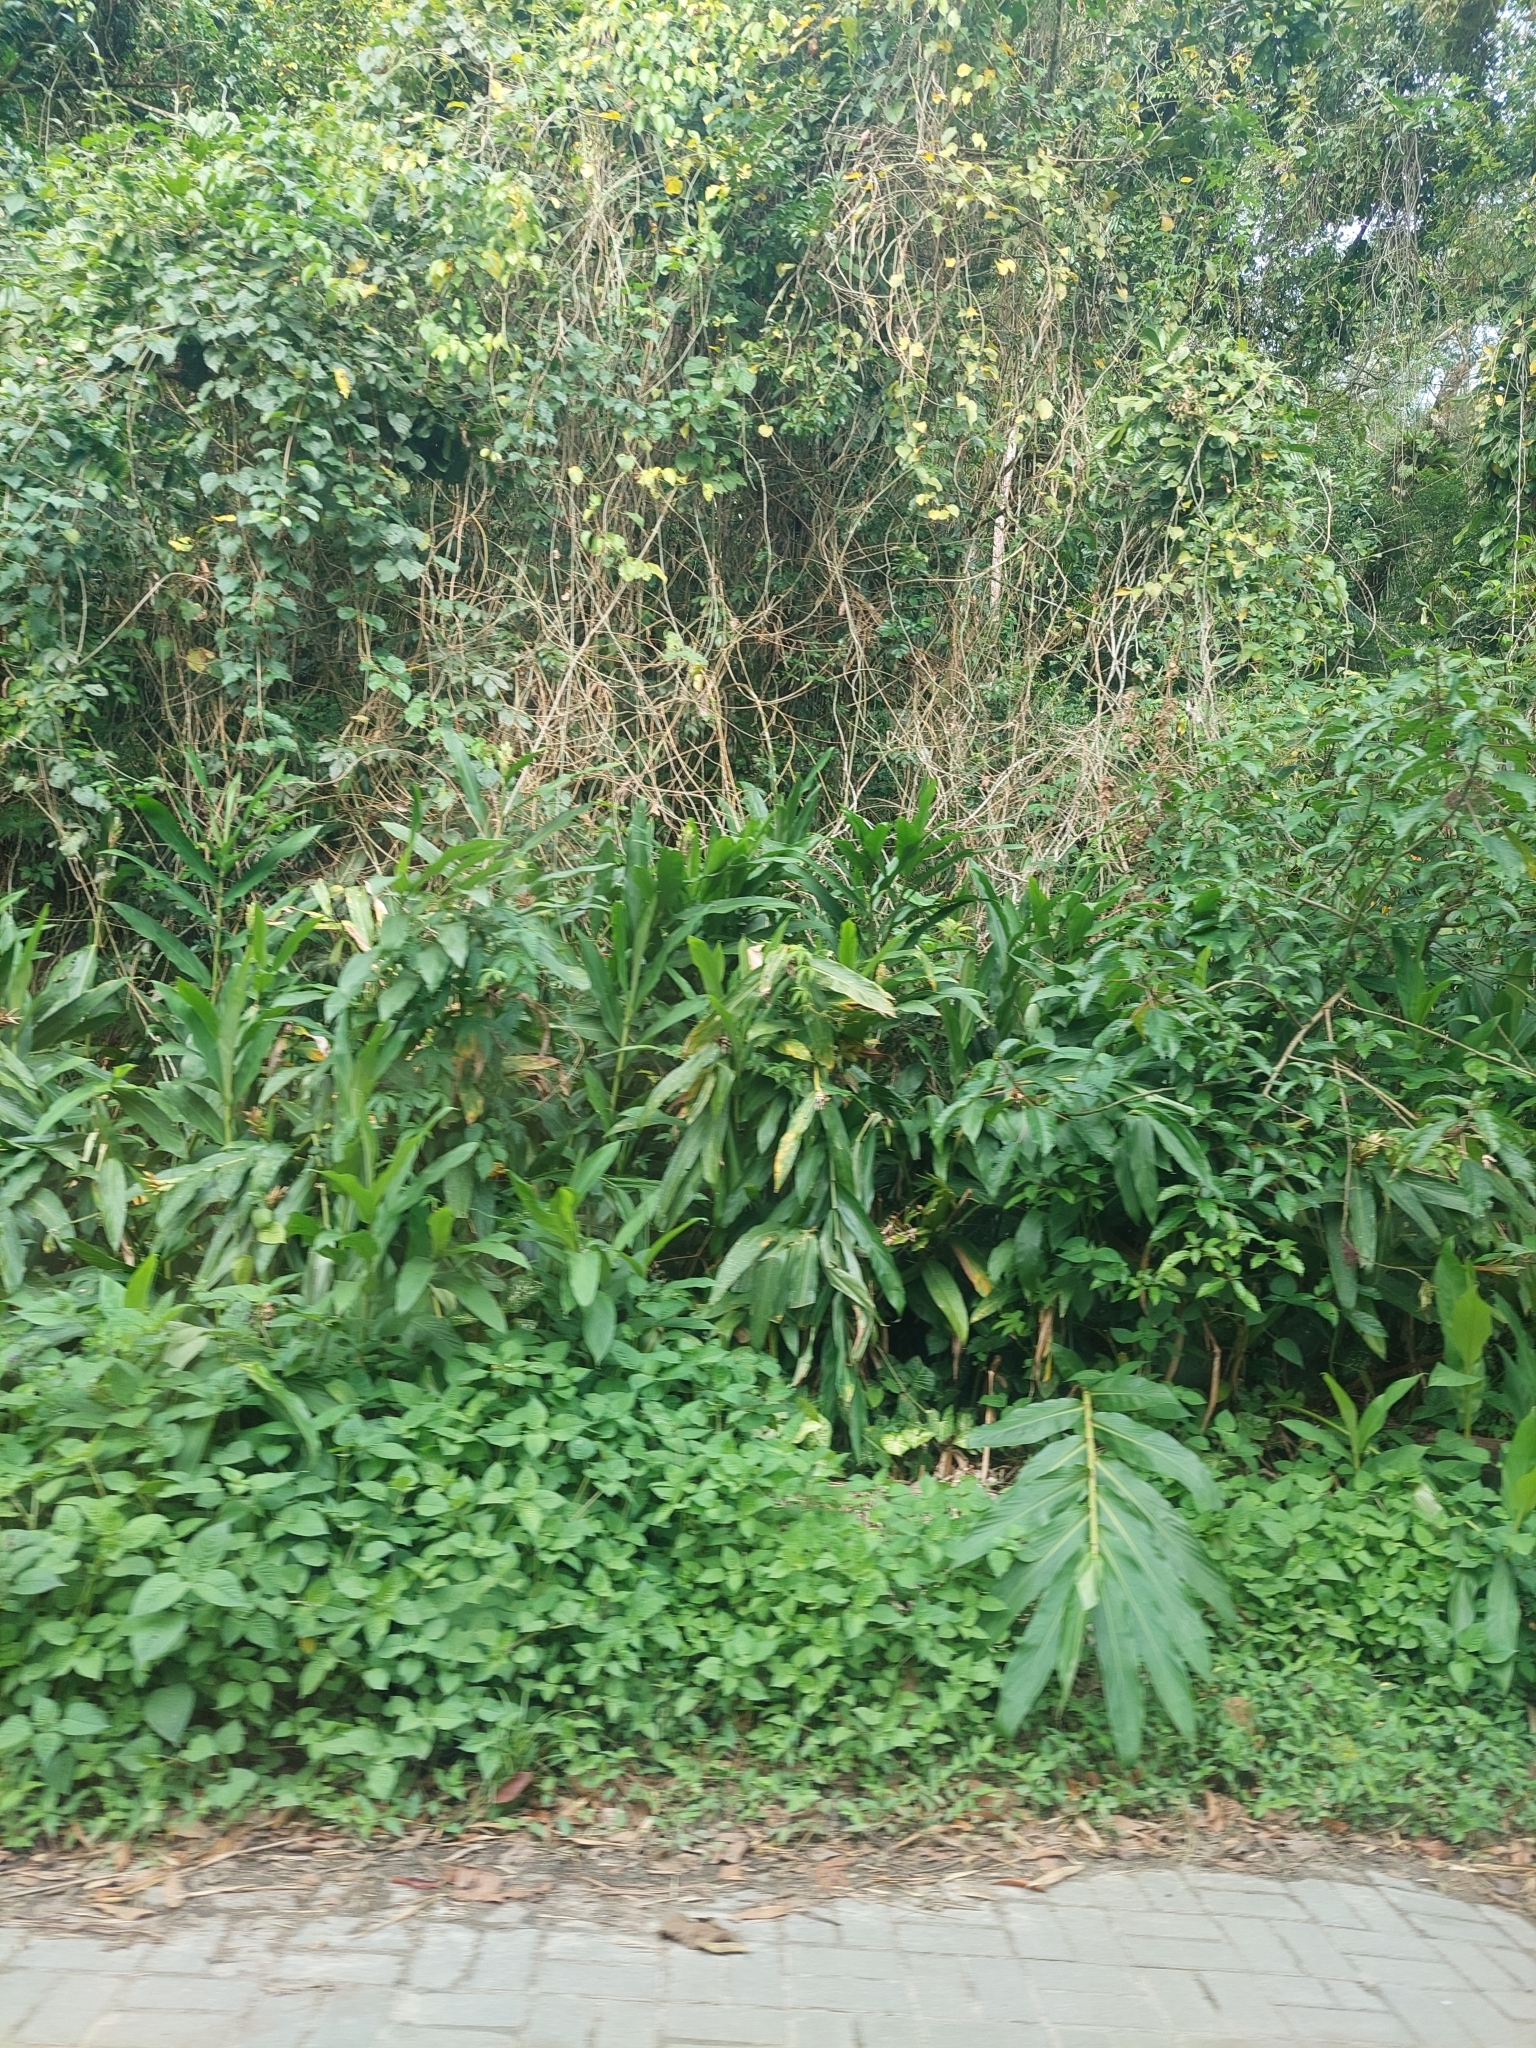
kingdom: Plantae
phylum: Tracheophyta
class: Liliopsida
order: Zingiberales
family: Zingiberaceae
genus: Hedychium
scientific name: Hedychium coronarium
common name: White garland-lily
